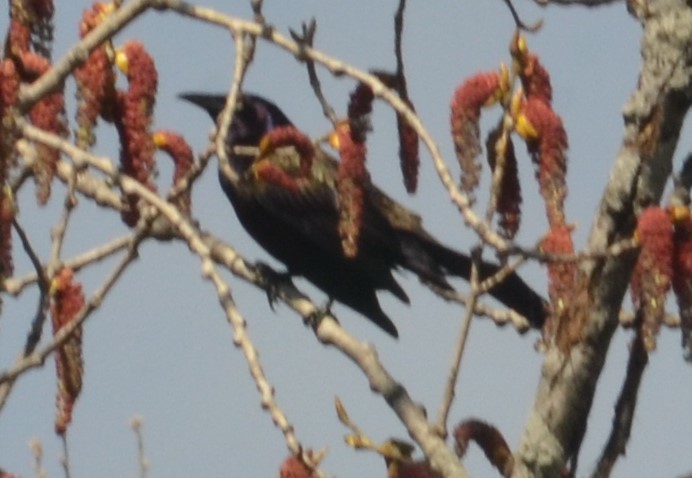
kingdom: Animalia
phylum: Chordata
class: Aves
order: Passeriformes
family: Icteridae
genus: Quiscalus
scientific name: Quiscalus quiscula
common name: Common grackle
